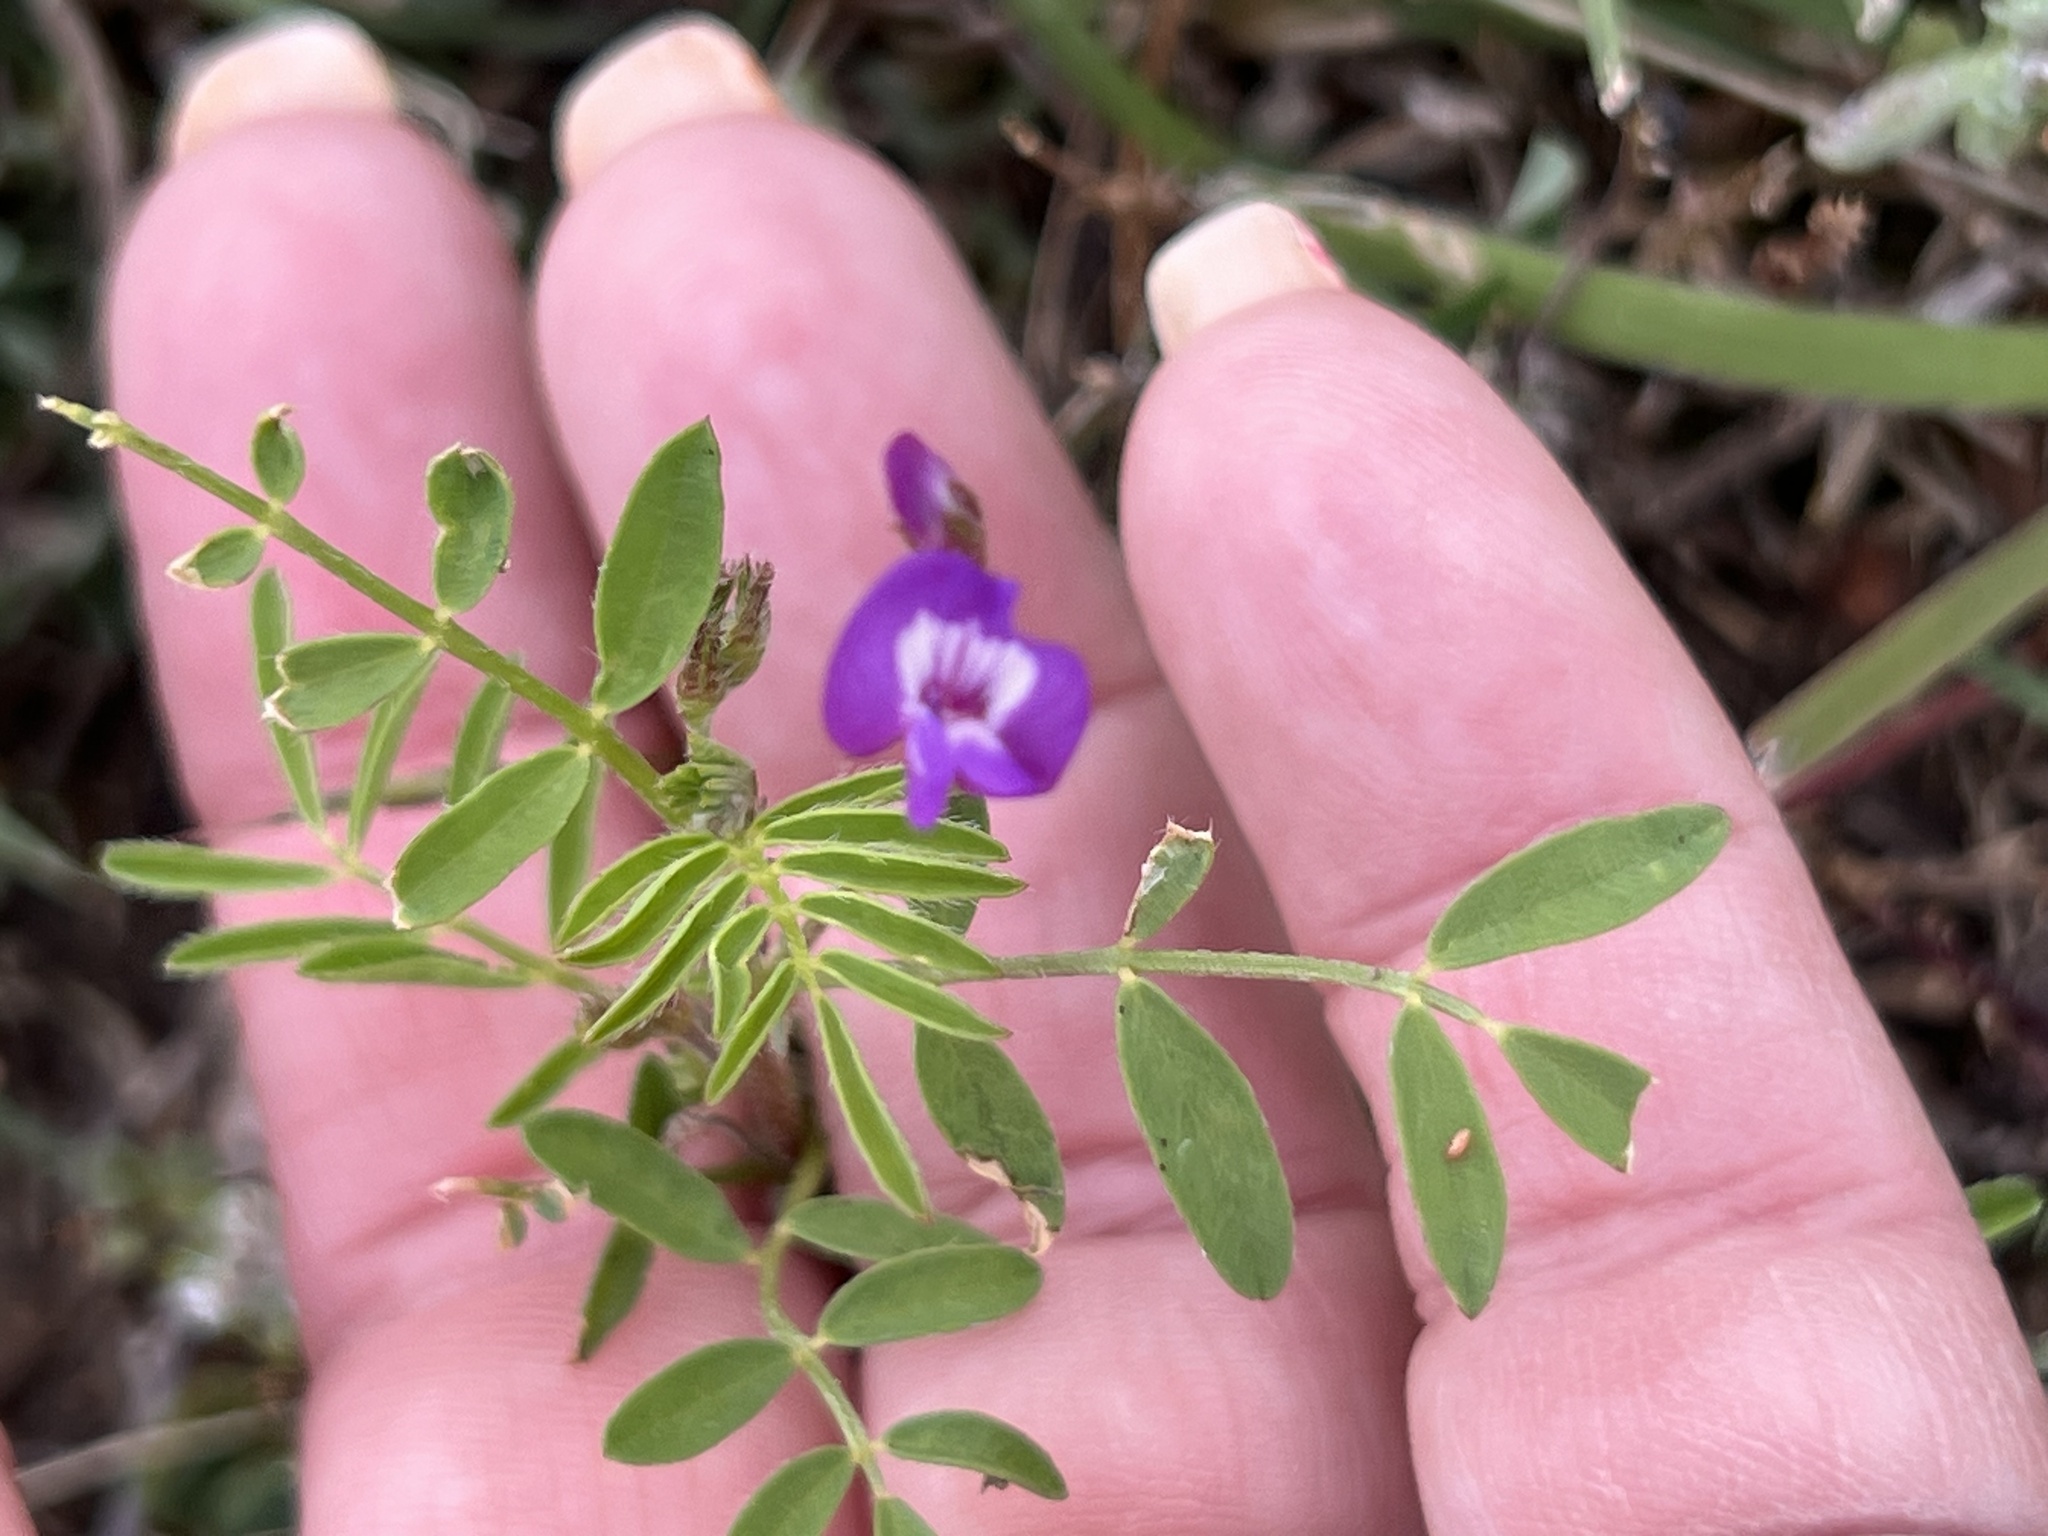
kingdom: Plantae
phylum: Tracheophyta
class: Magnoliopsida
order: Fabales
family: Fabaceae
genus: Astragalus
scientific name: Astragalus nuttallianus
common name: Smallflowered milkvetch
